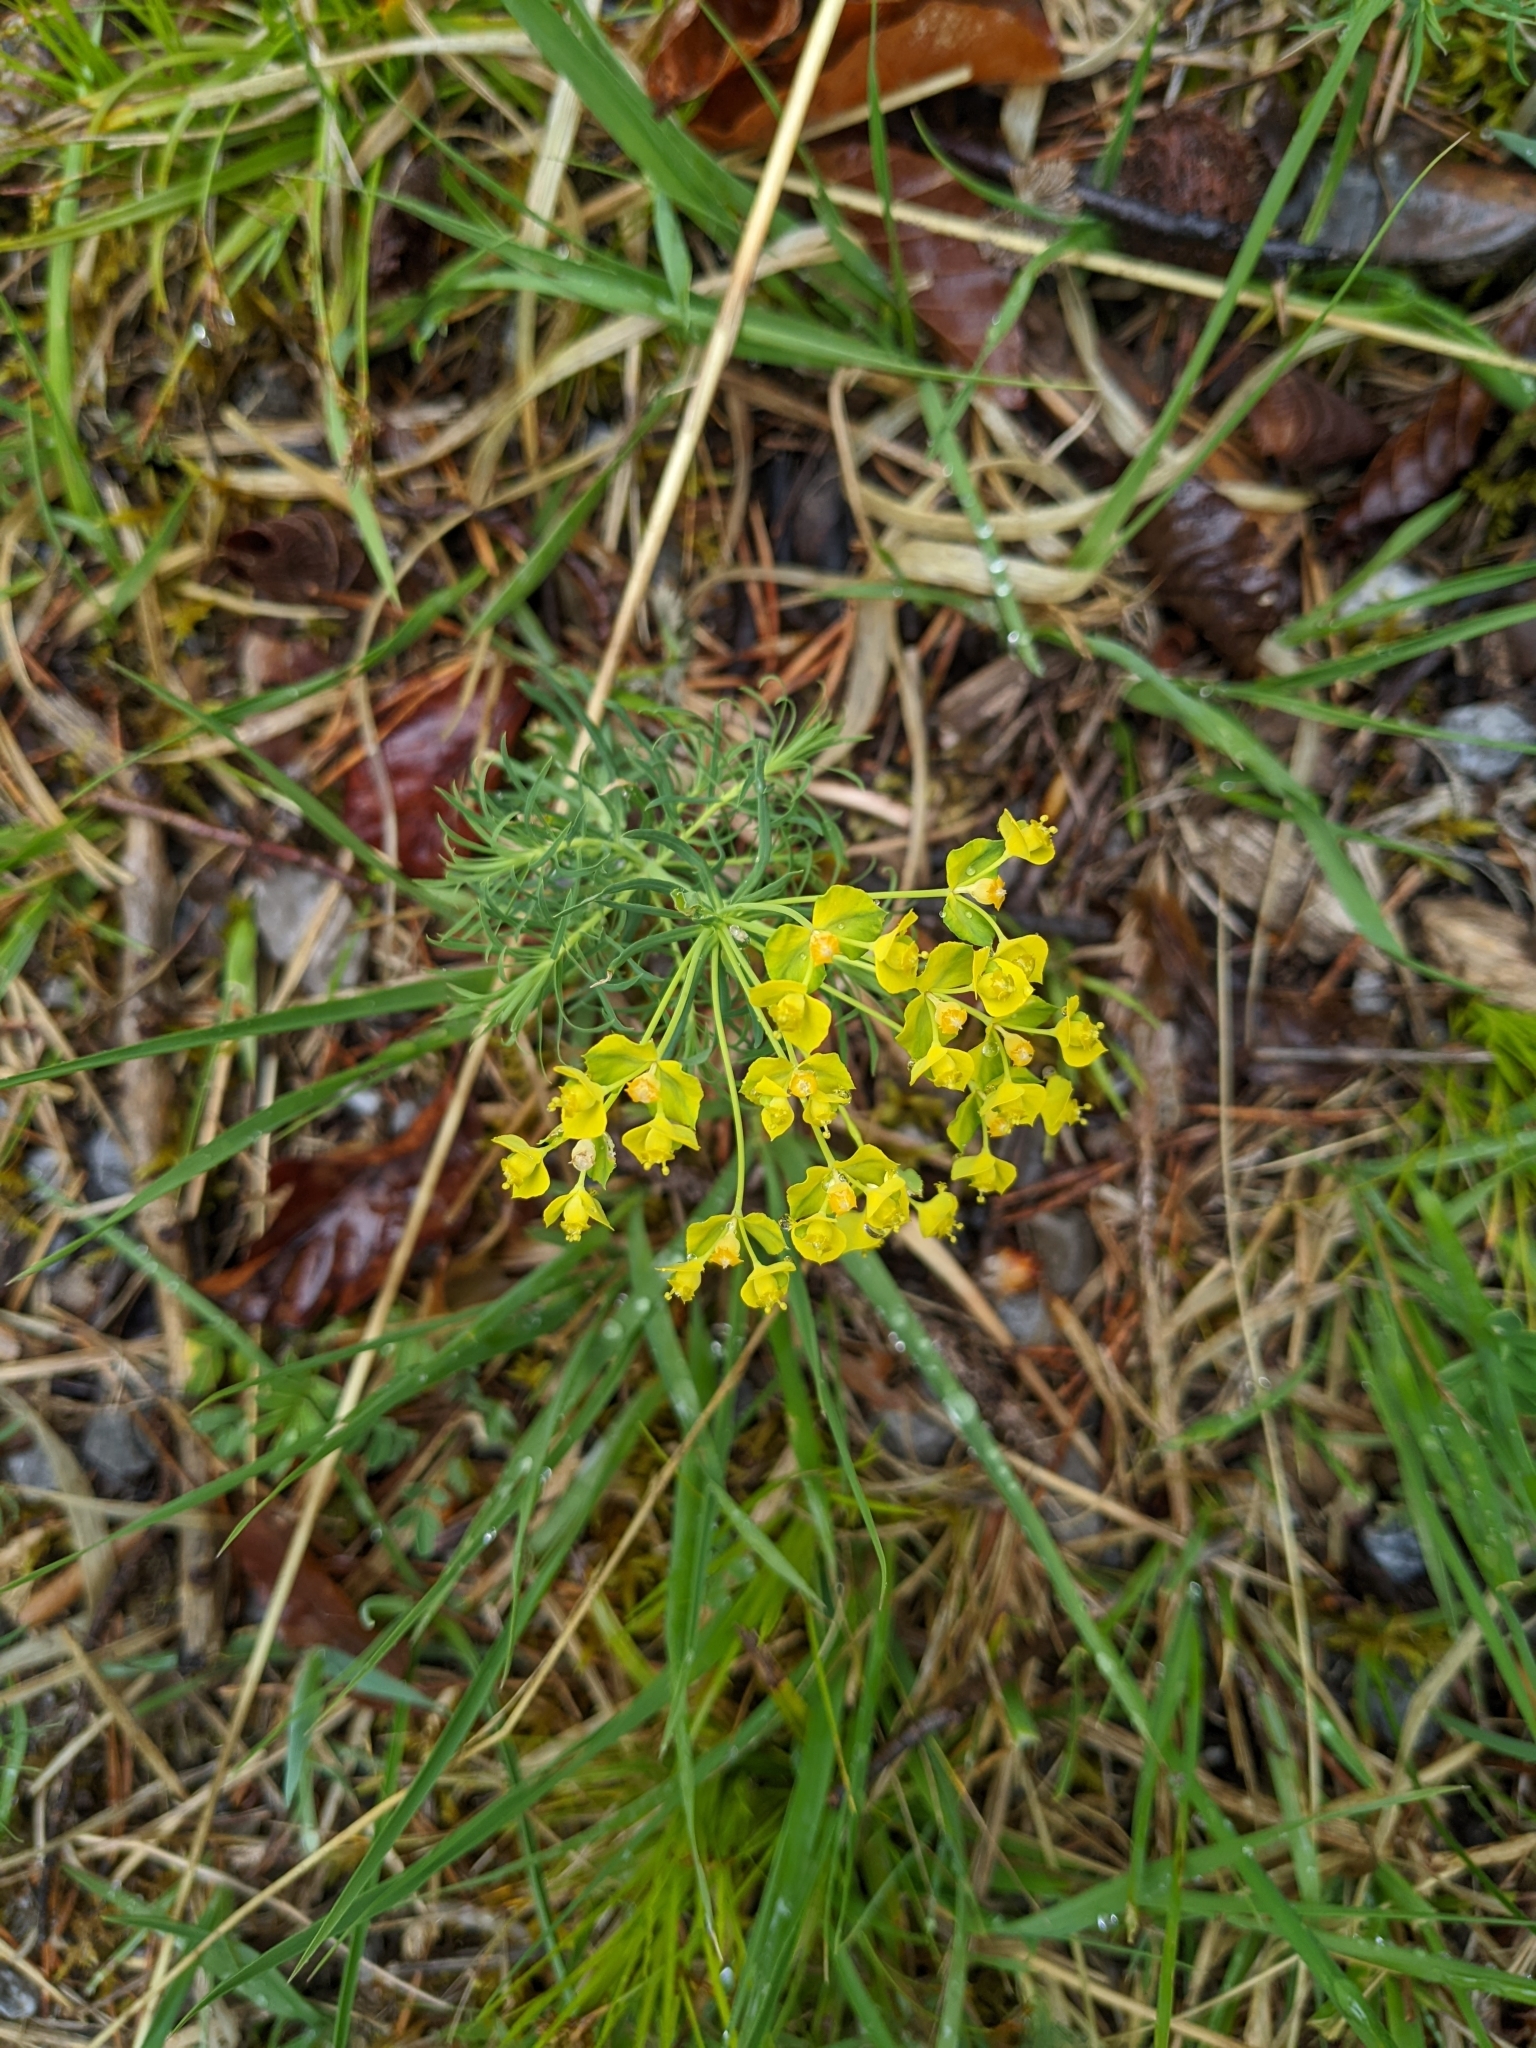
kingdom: Plantae
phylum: Tracheophyta
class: Magnoliopsida
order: Malpighiales
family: Euphorbiaceae
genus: Euphorbia
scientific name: Euphorbia cyparissias
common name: Cypress spurge
